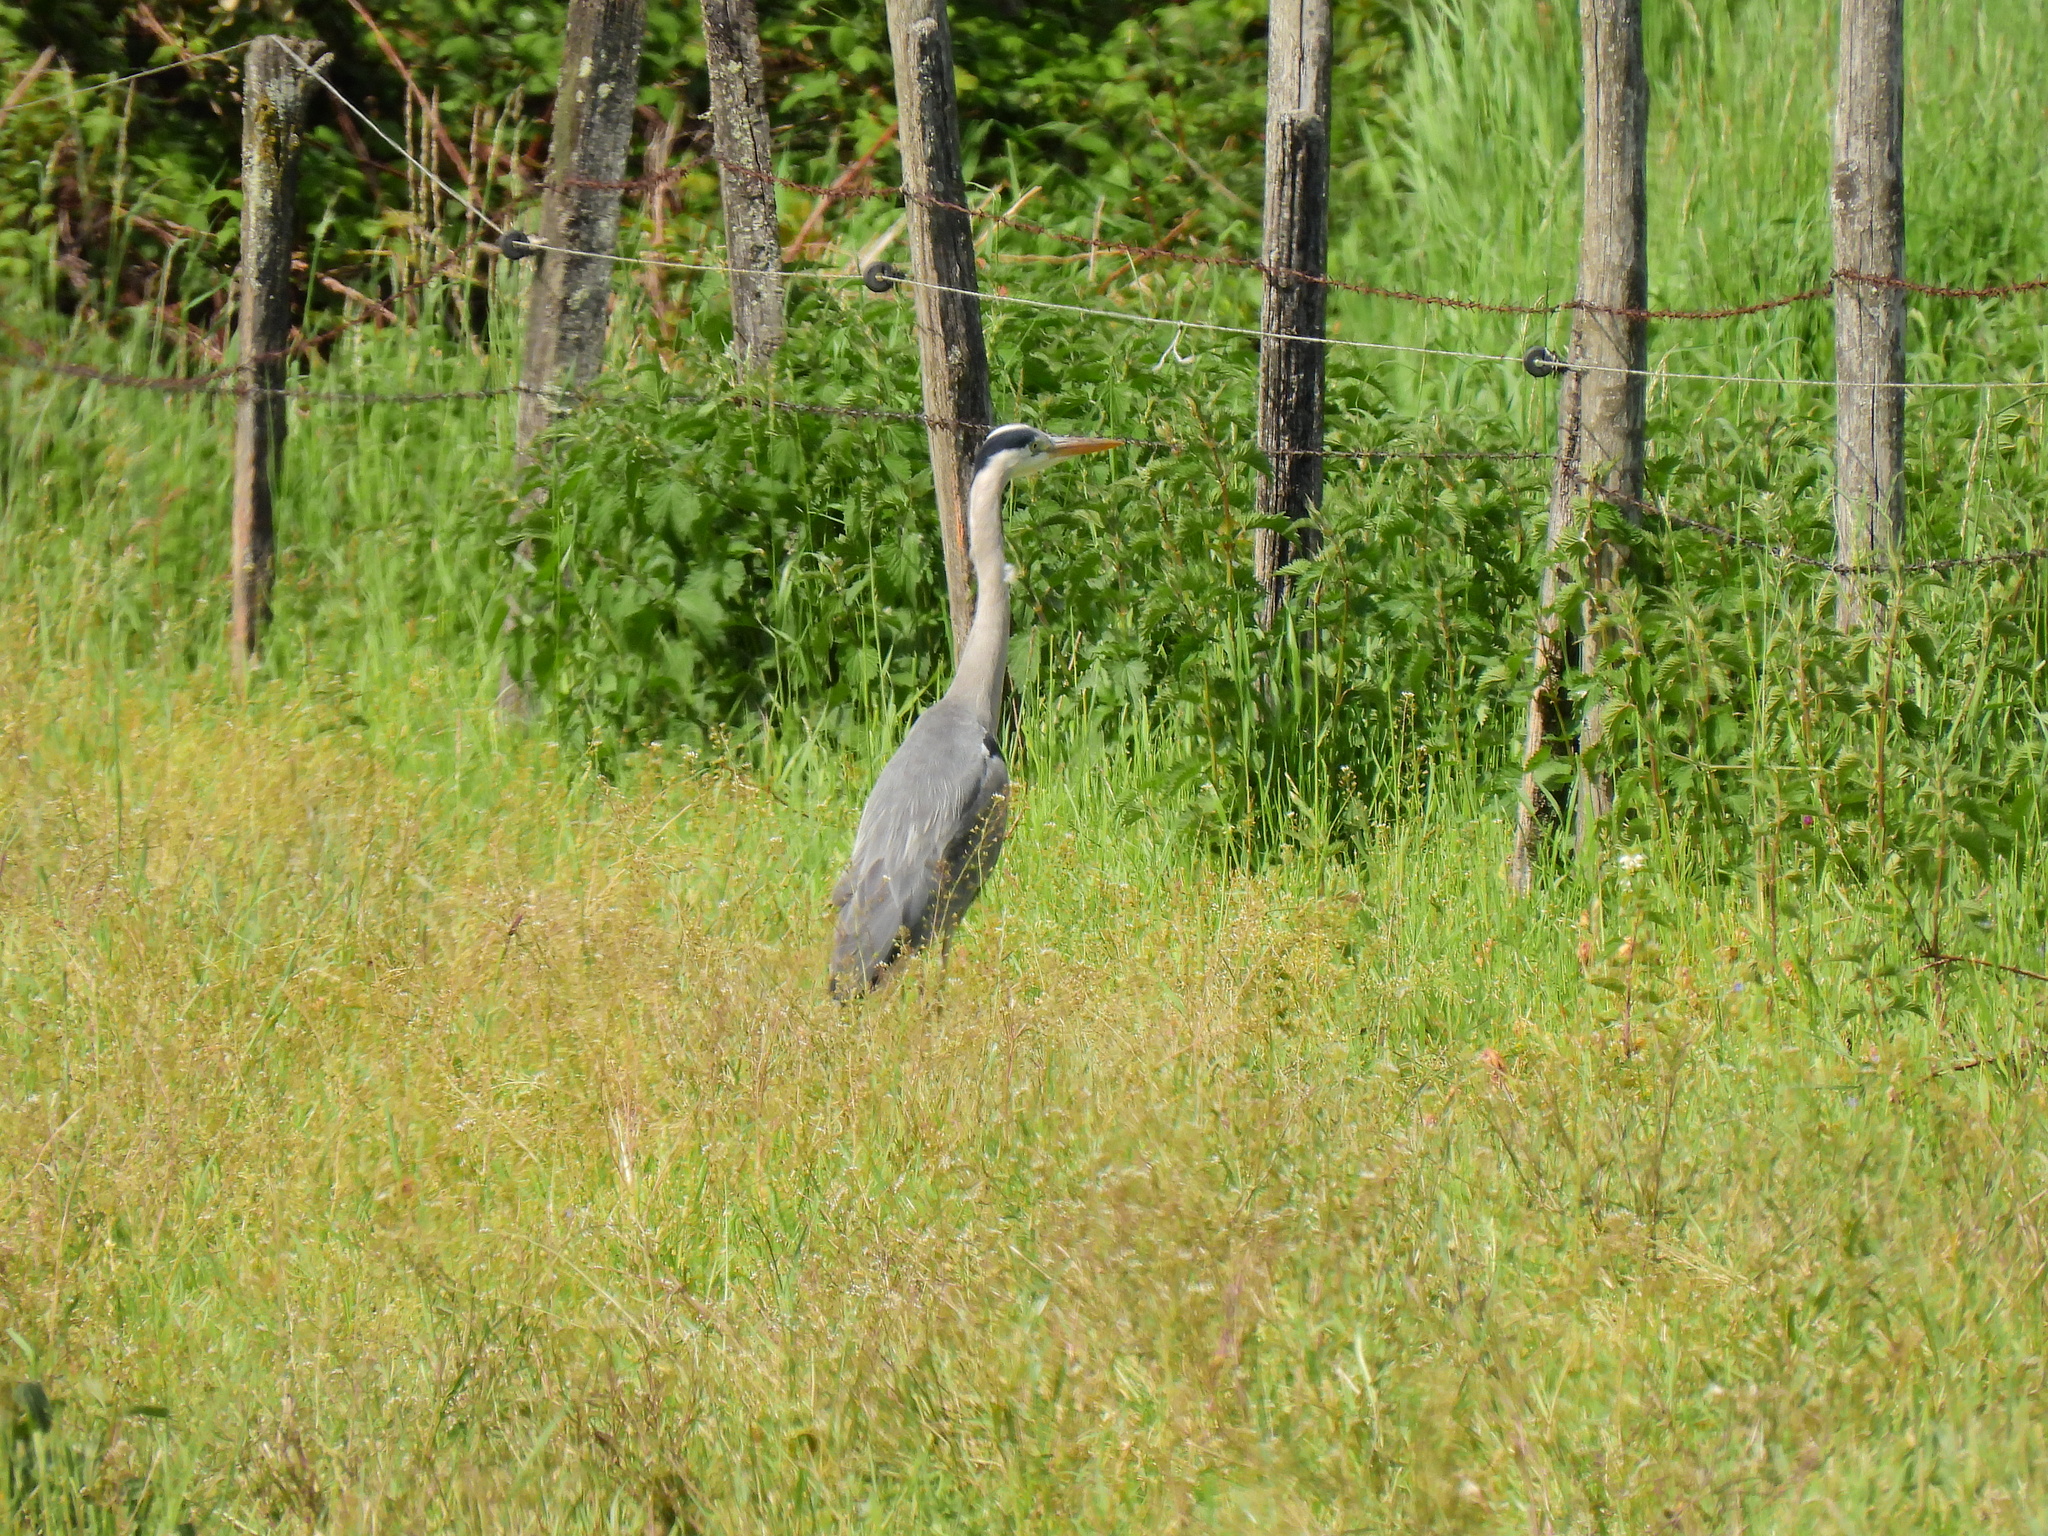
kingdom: Animalia
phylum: Chordata
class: Aves
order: Pelecaniformes
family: Ardeidae
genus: Ardea
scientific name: Ardea cinerea
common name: Grey heron
